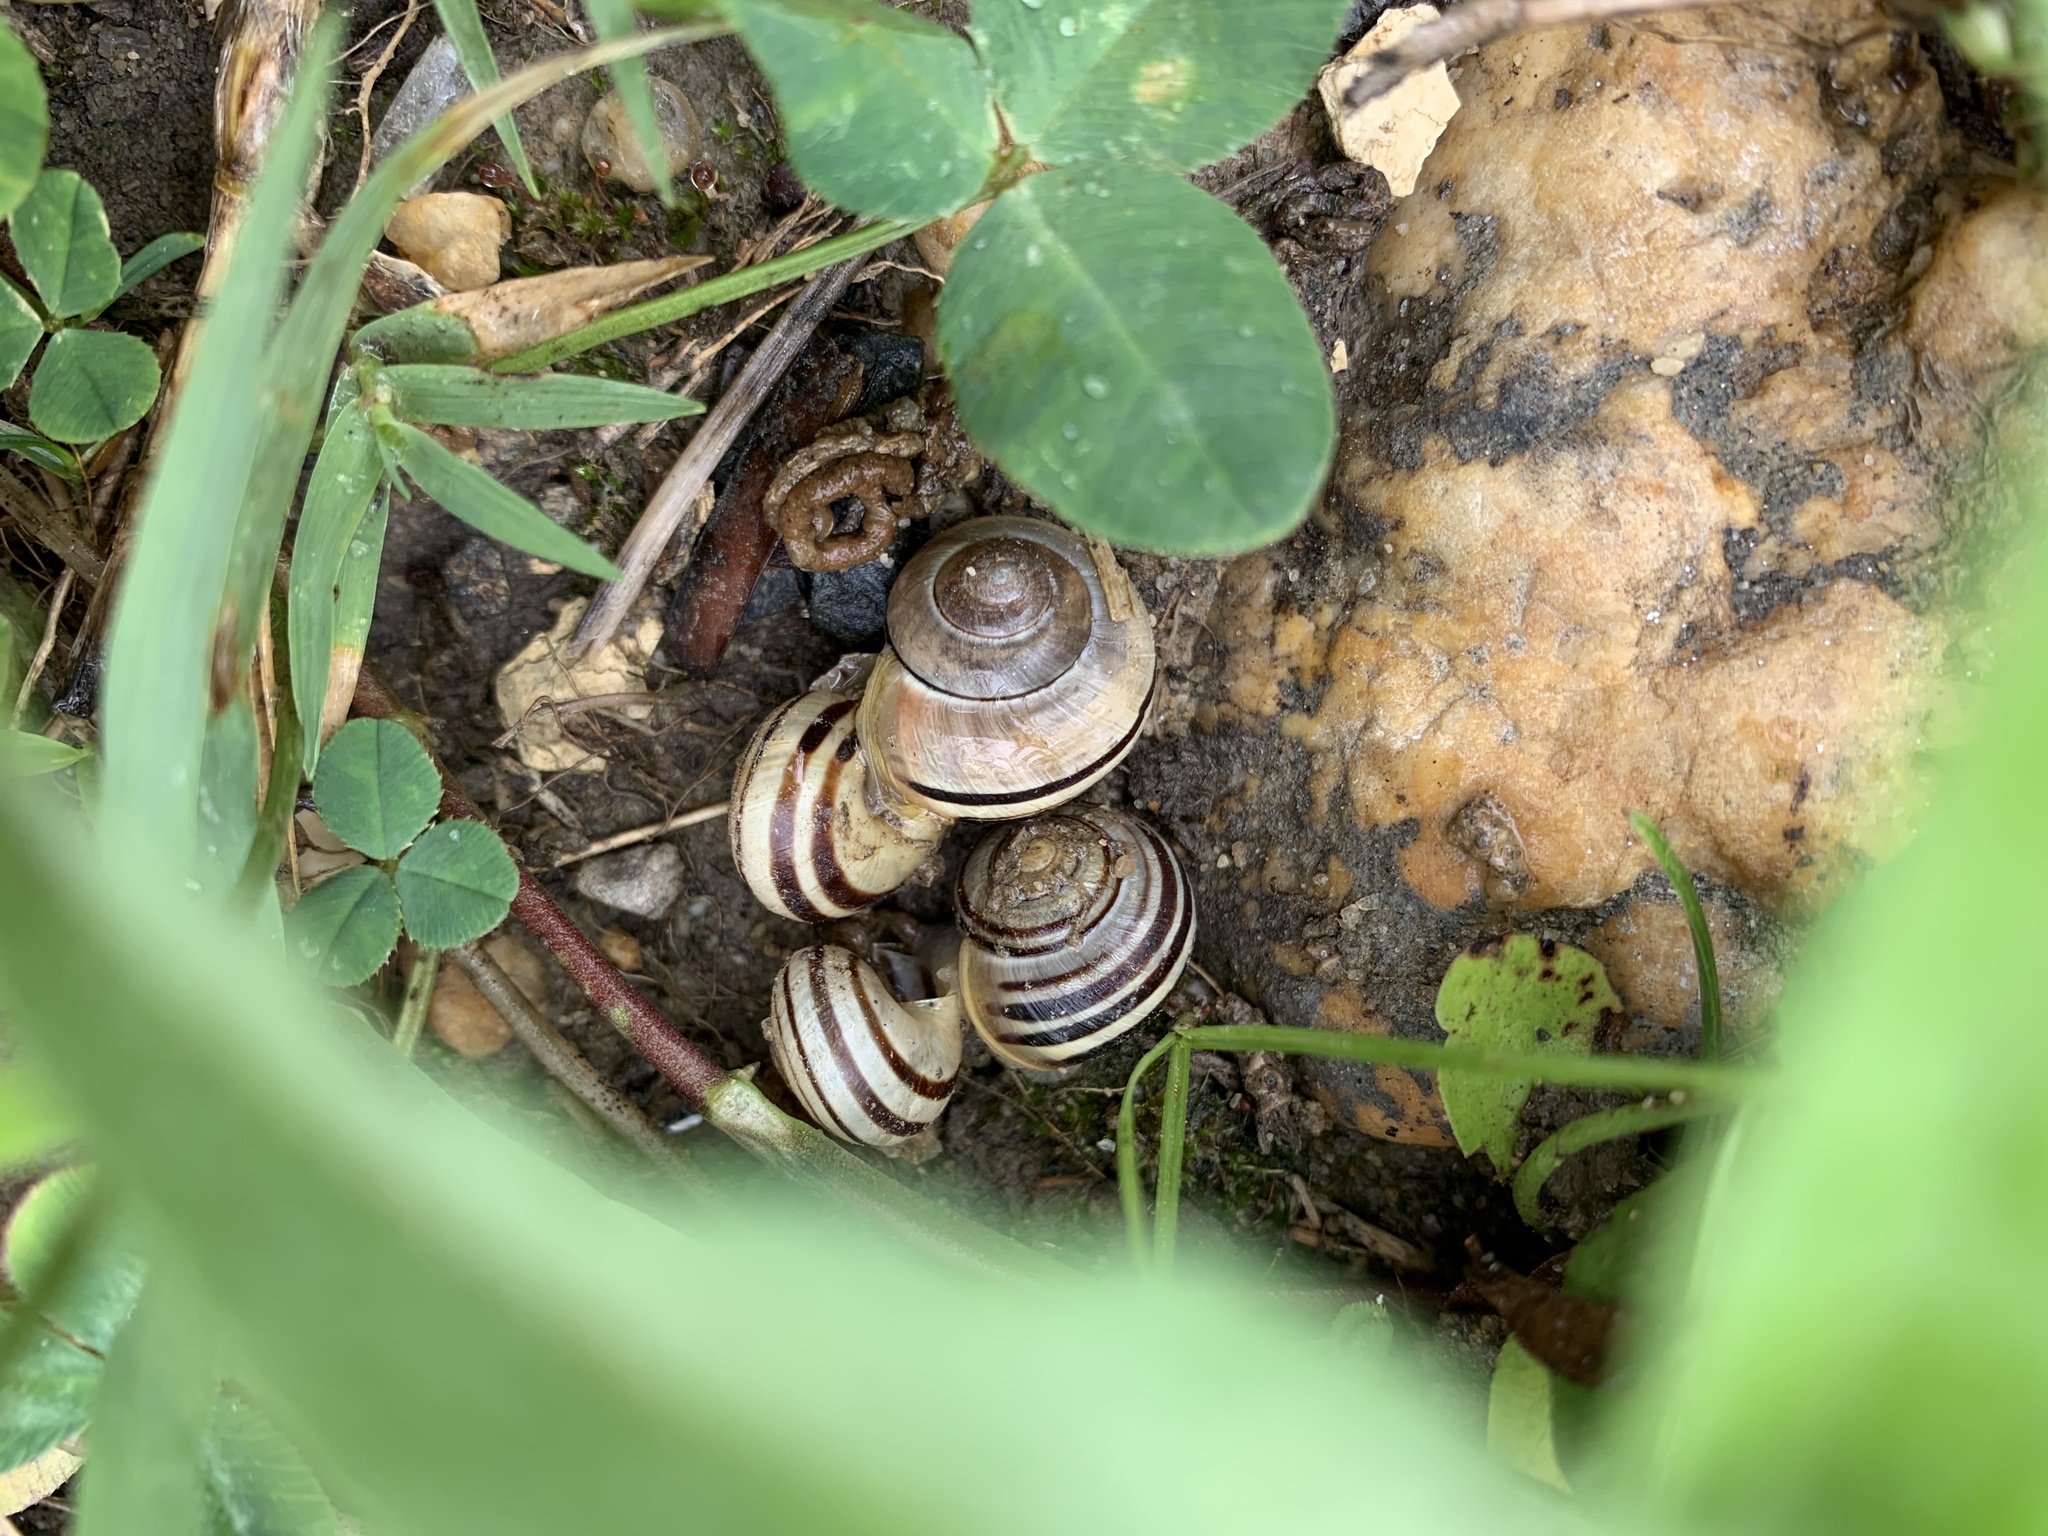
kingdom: Animalia
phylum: Mollusca
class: Gastropoda
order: Stylommatophora
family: Helicidae
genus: Cepaea
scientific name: Cepaea
